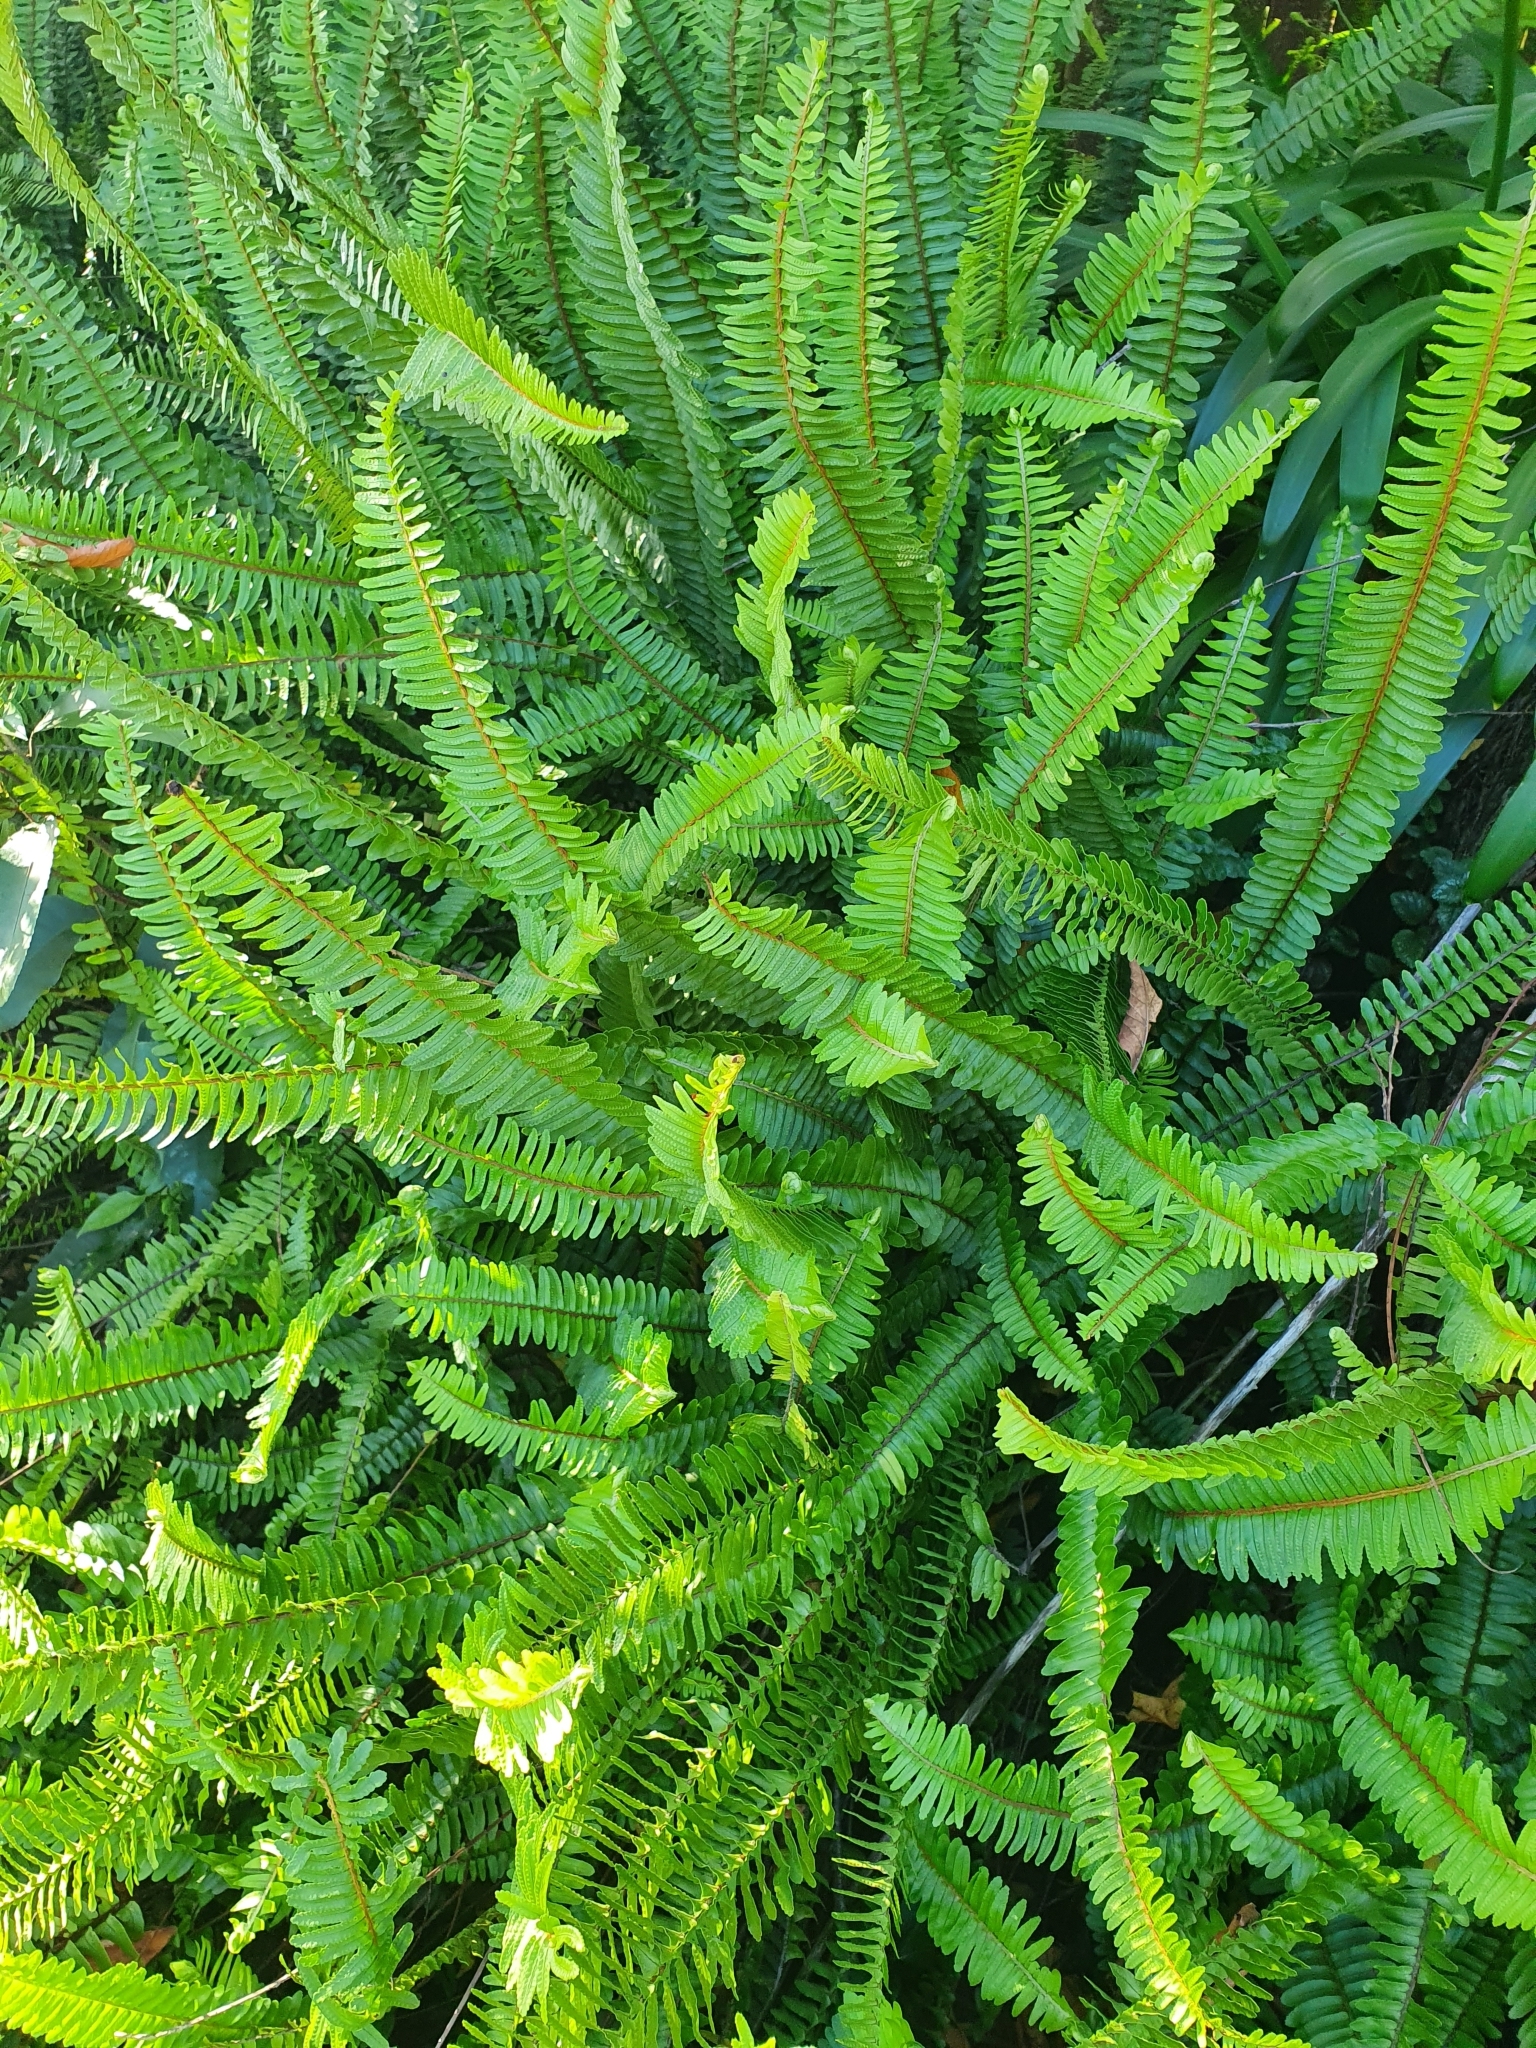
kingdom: Plantae
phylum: Tracheophyta
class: Polypodiopsida
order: Polypodiales
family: Nephrolepidaceae
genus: Nephrolepis
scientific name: Nephrolepis cordifolia
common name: Narrow swordfern
